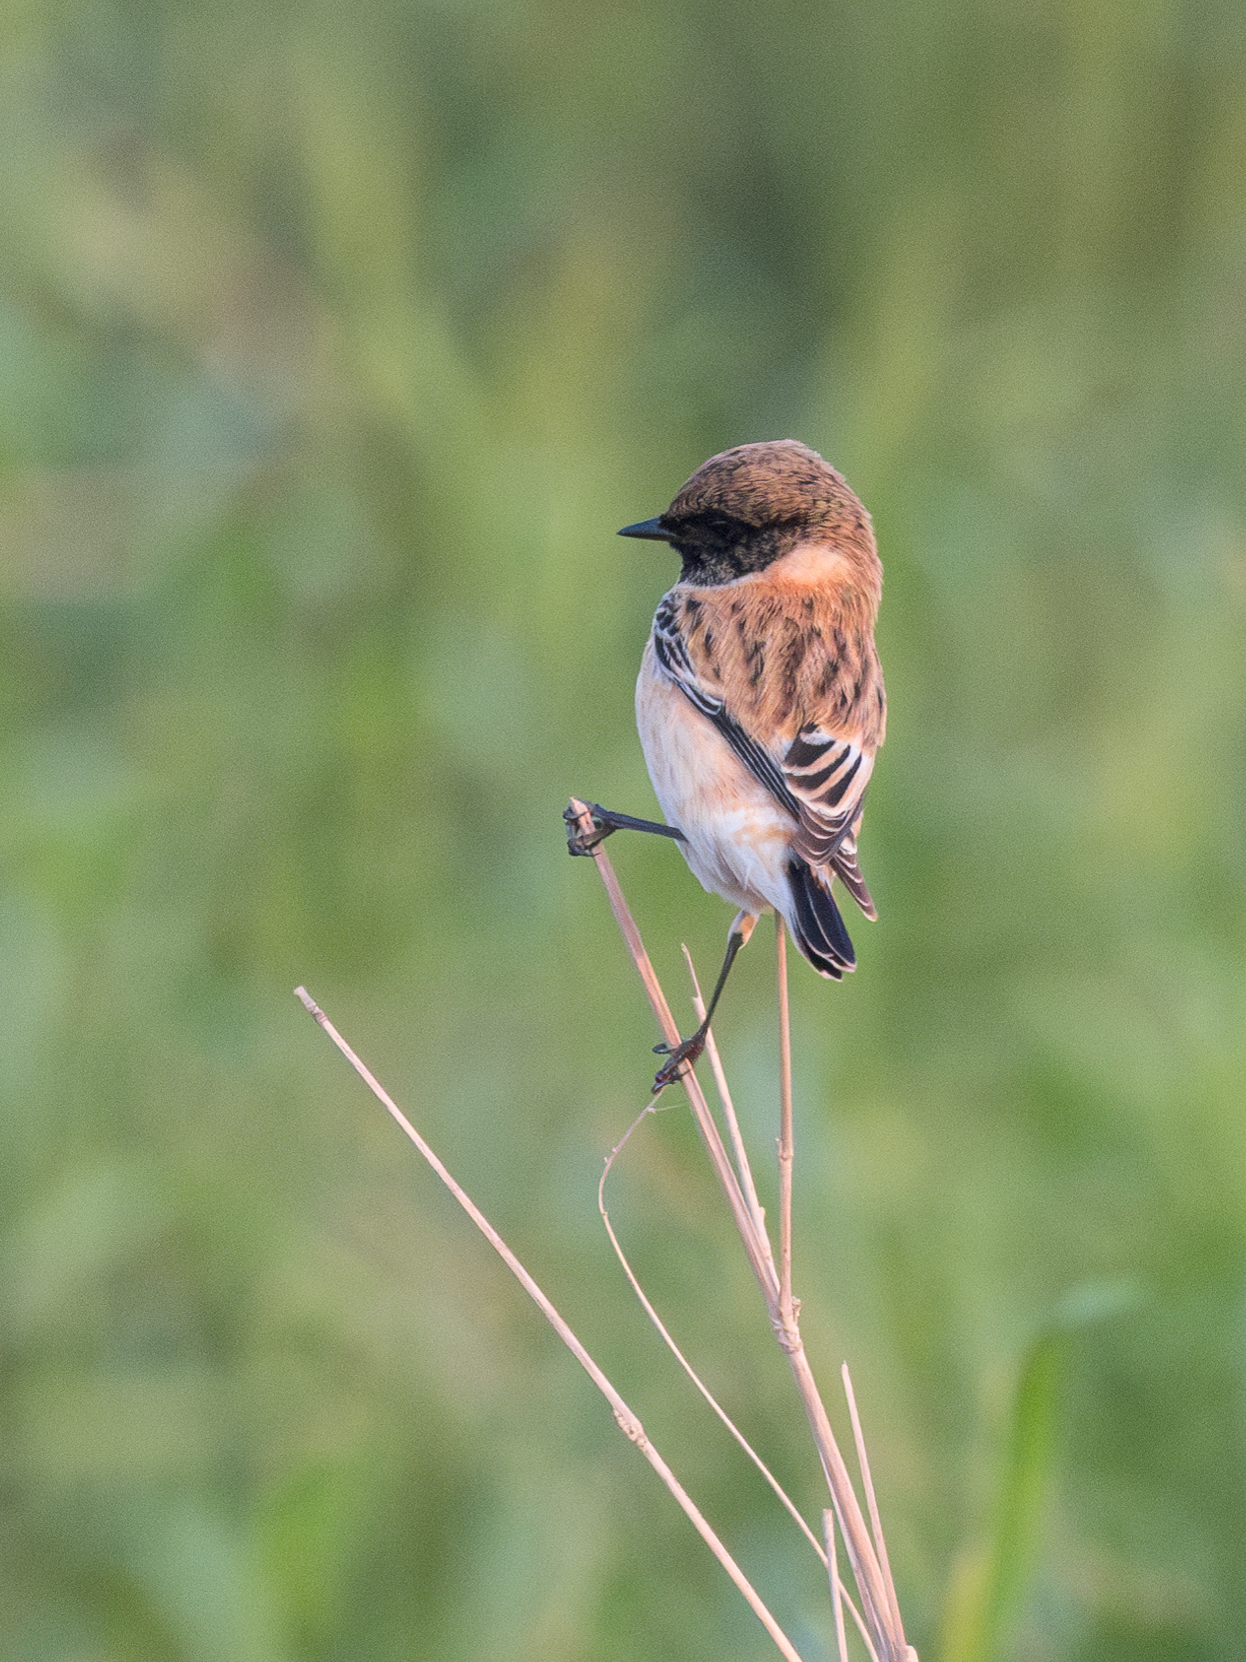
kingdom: Animalia
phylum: Chordata
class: Aves
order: Passeriformes
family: Muscicapidae
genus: Saxicola
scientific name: Saxicola maurus
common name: Siberian stonechat
